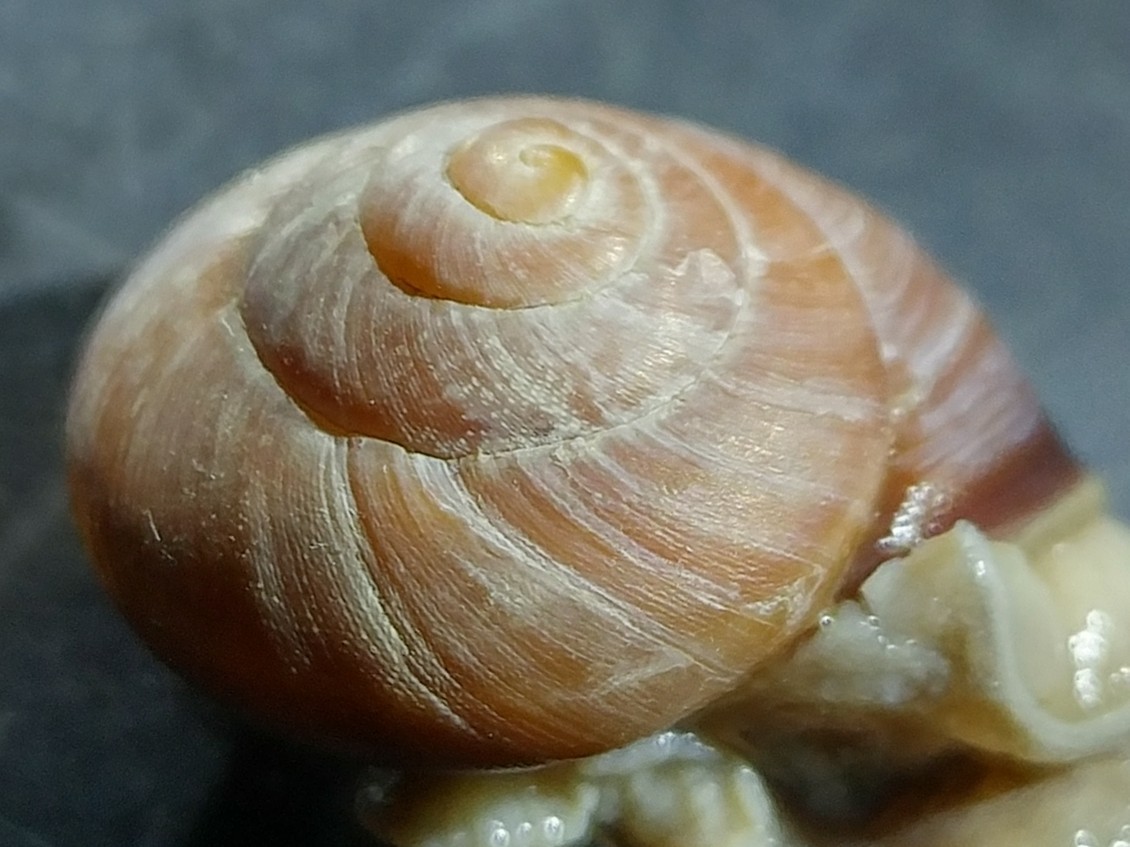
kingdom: Animalia
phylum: Mollusca
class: Gastropoda
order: Stylommatophora
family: Xanthonychidae
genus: Xerarionta
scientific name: Xerarionta redimita
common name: Wreathed cactus snail
